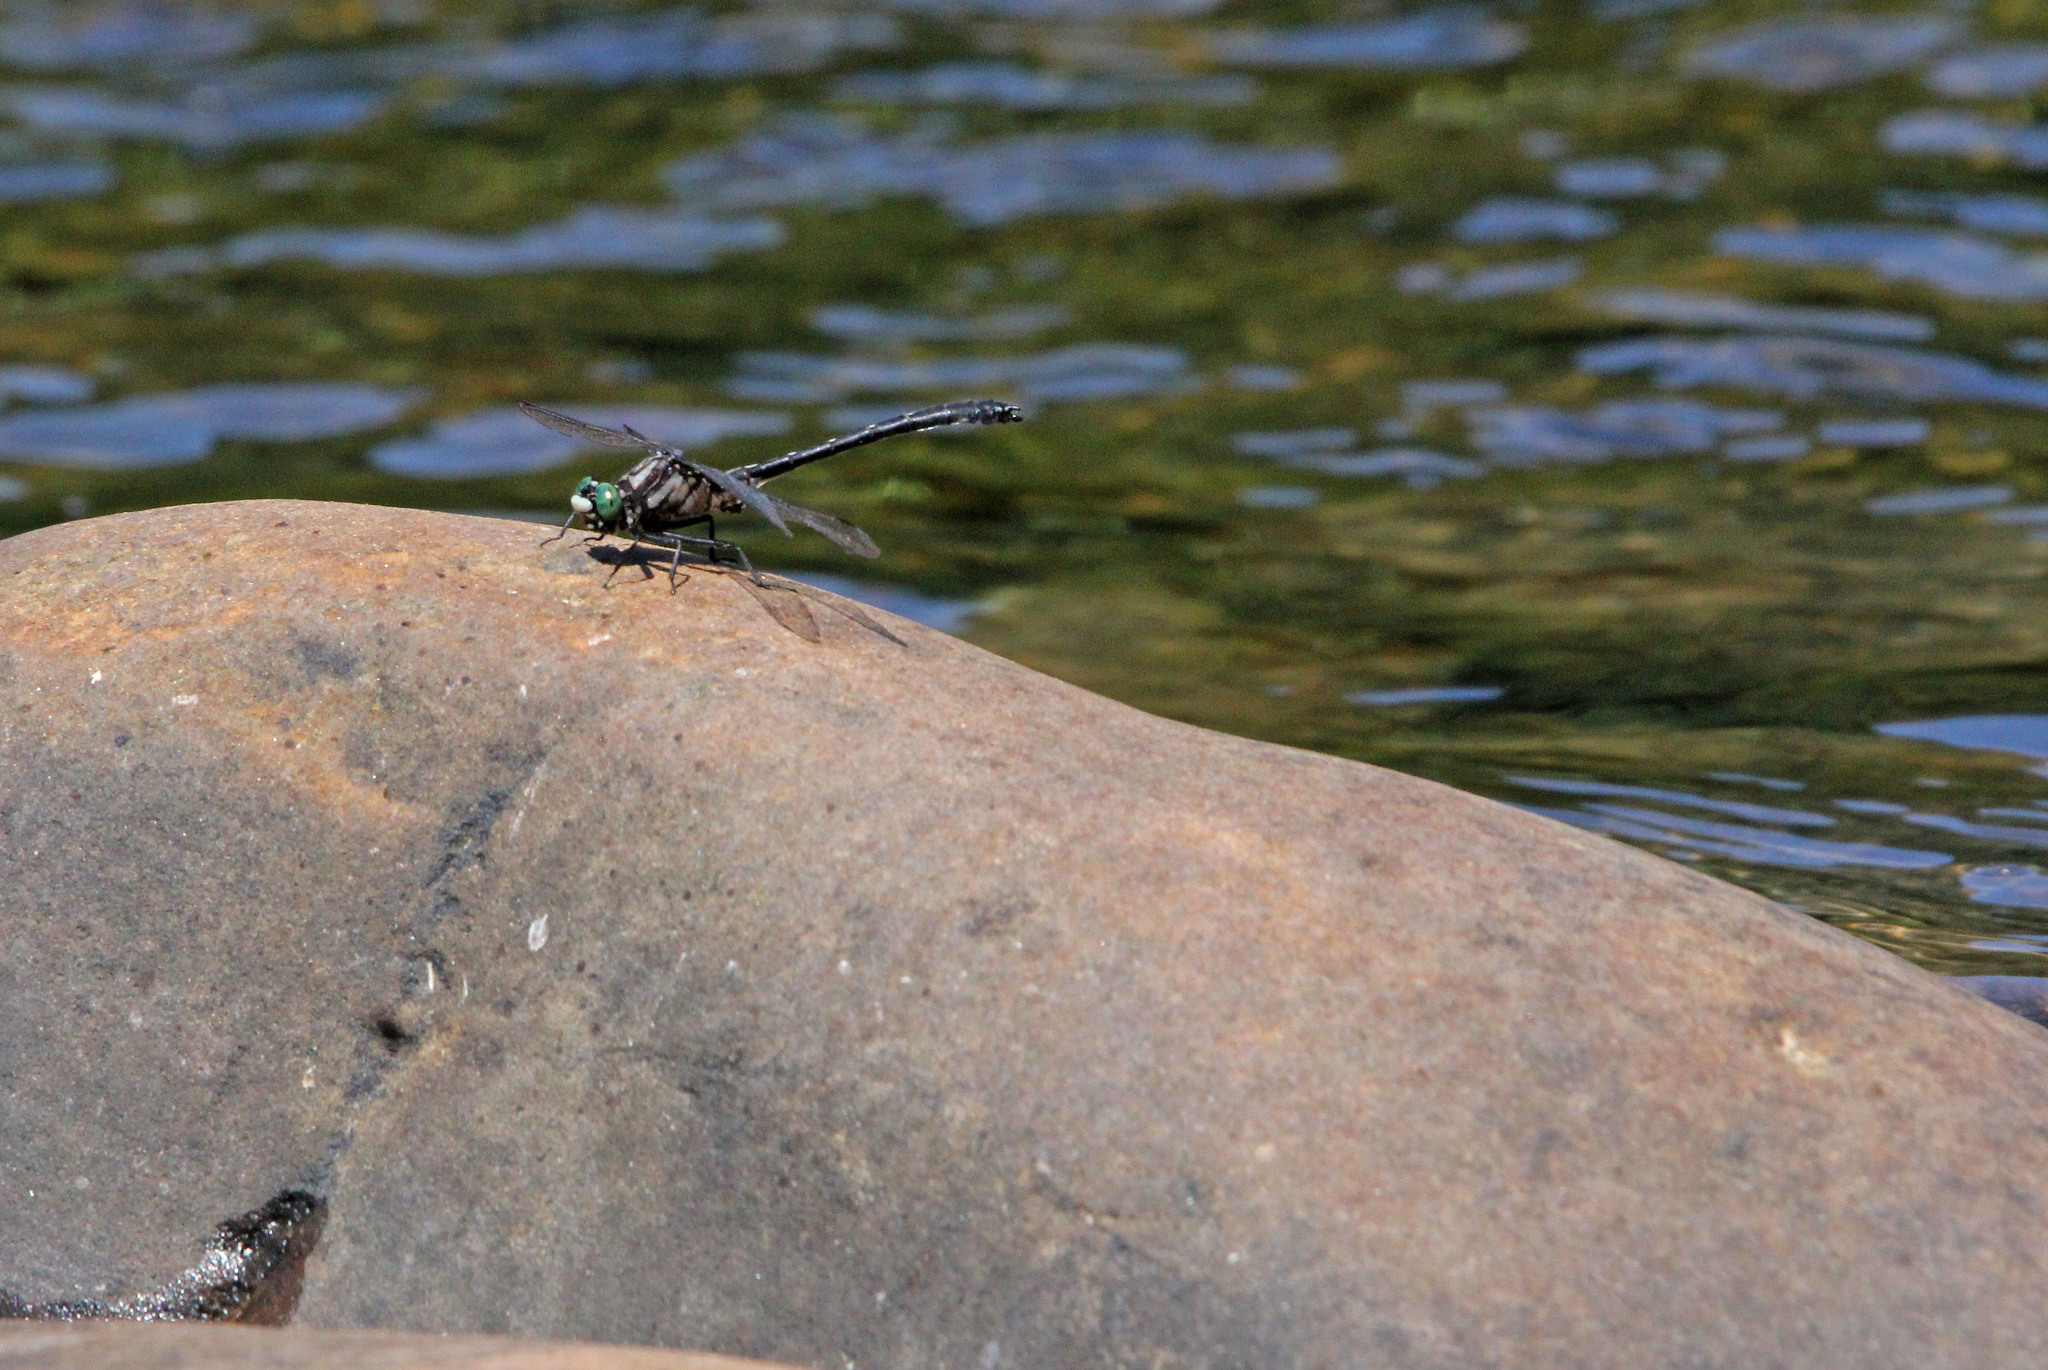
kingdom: Animalia
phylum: Arthropoda
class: Insecta
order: Odonata
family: Gomphidae
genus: Hylogomphus
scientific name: Hylogomphus adelphus
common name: Mustached clubtail
